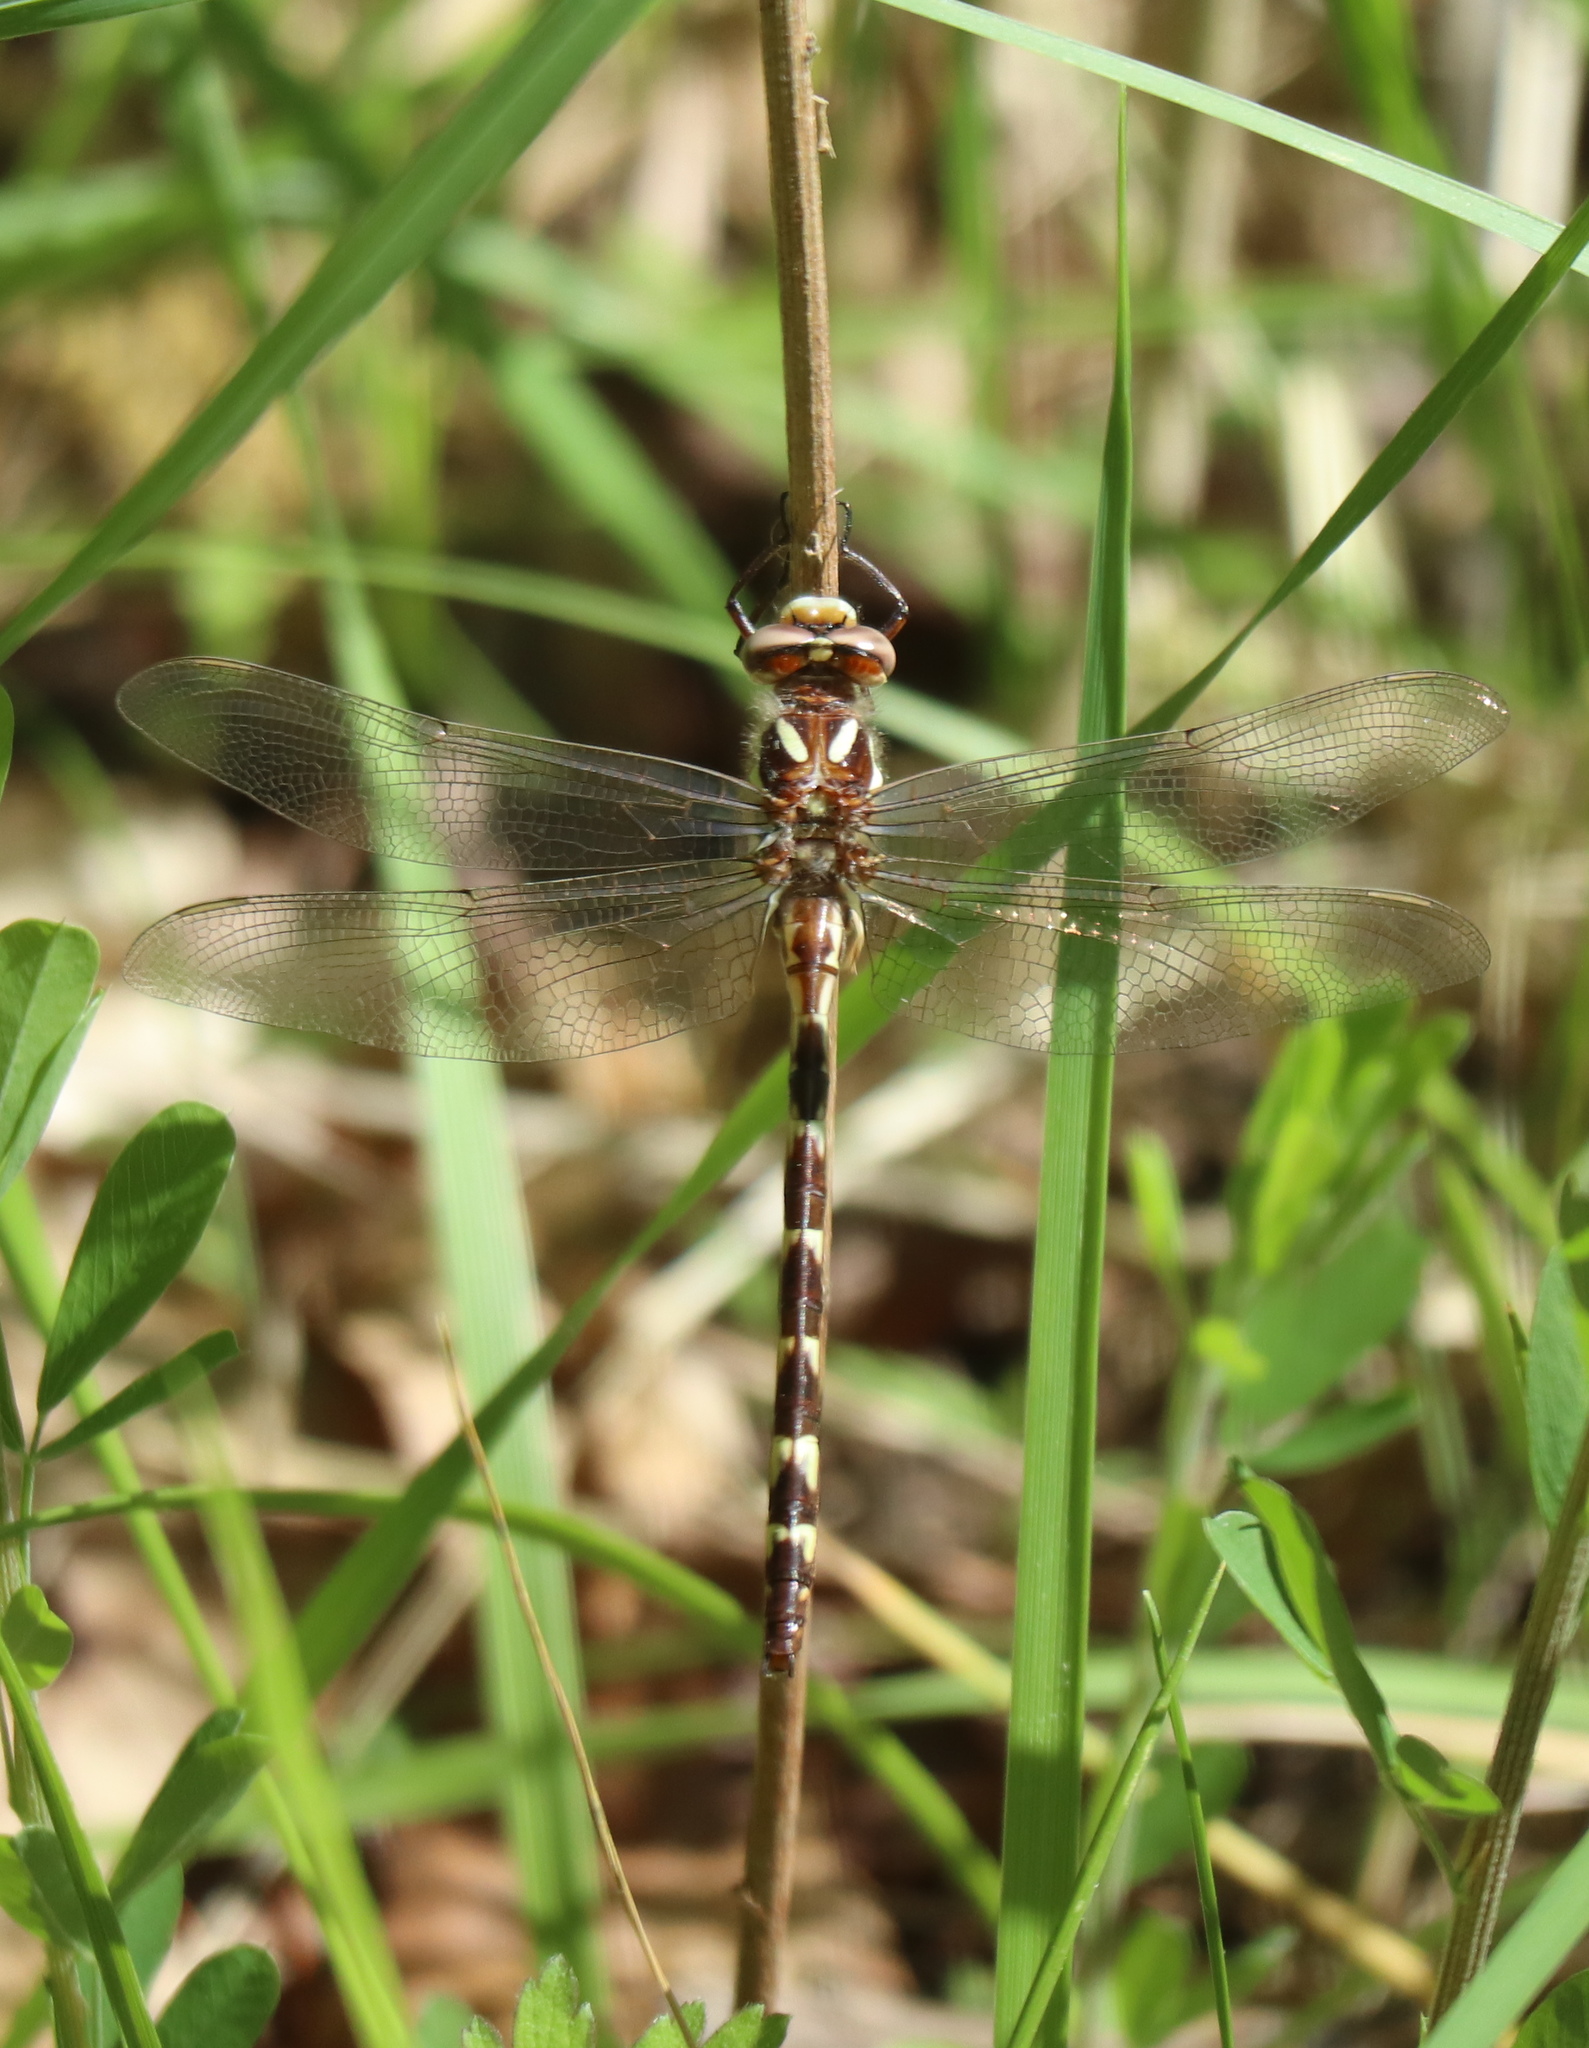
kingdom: Animalia
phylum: Arthropoda
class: Insecta
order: Odonata
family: Cordulegastridae
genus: Cordulegaster
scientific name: Cordulegaster bilineata
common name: Brown spiketail
